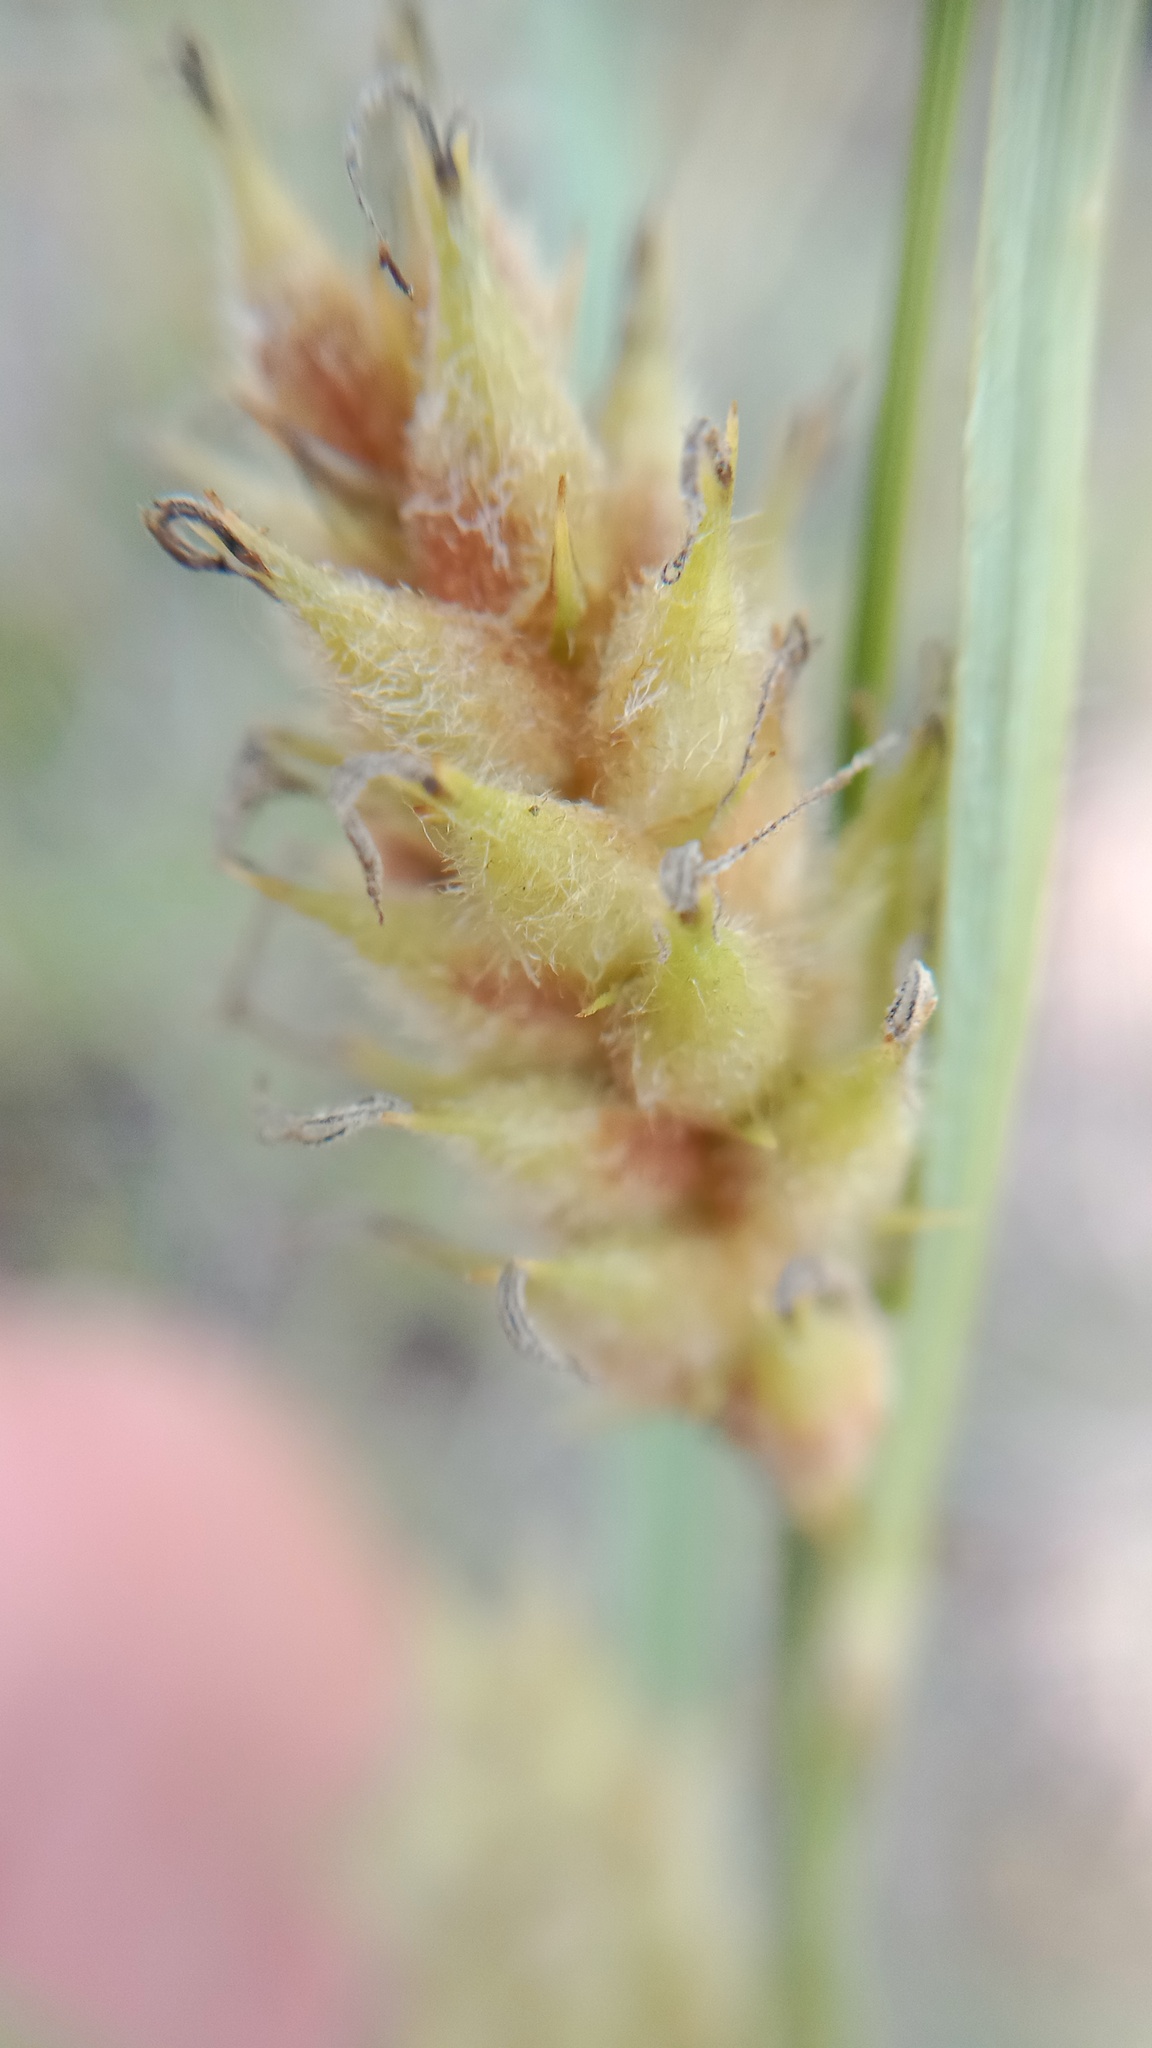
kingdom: Plantae
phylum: Tracheophyta
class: Liliopsida
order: Poales
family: Cyperaceae
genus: Carex
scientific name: Carex hirta
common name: Hairy sedge
